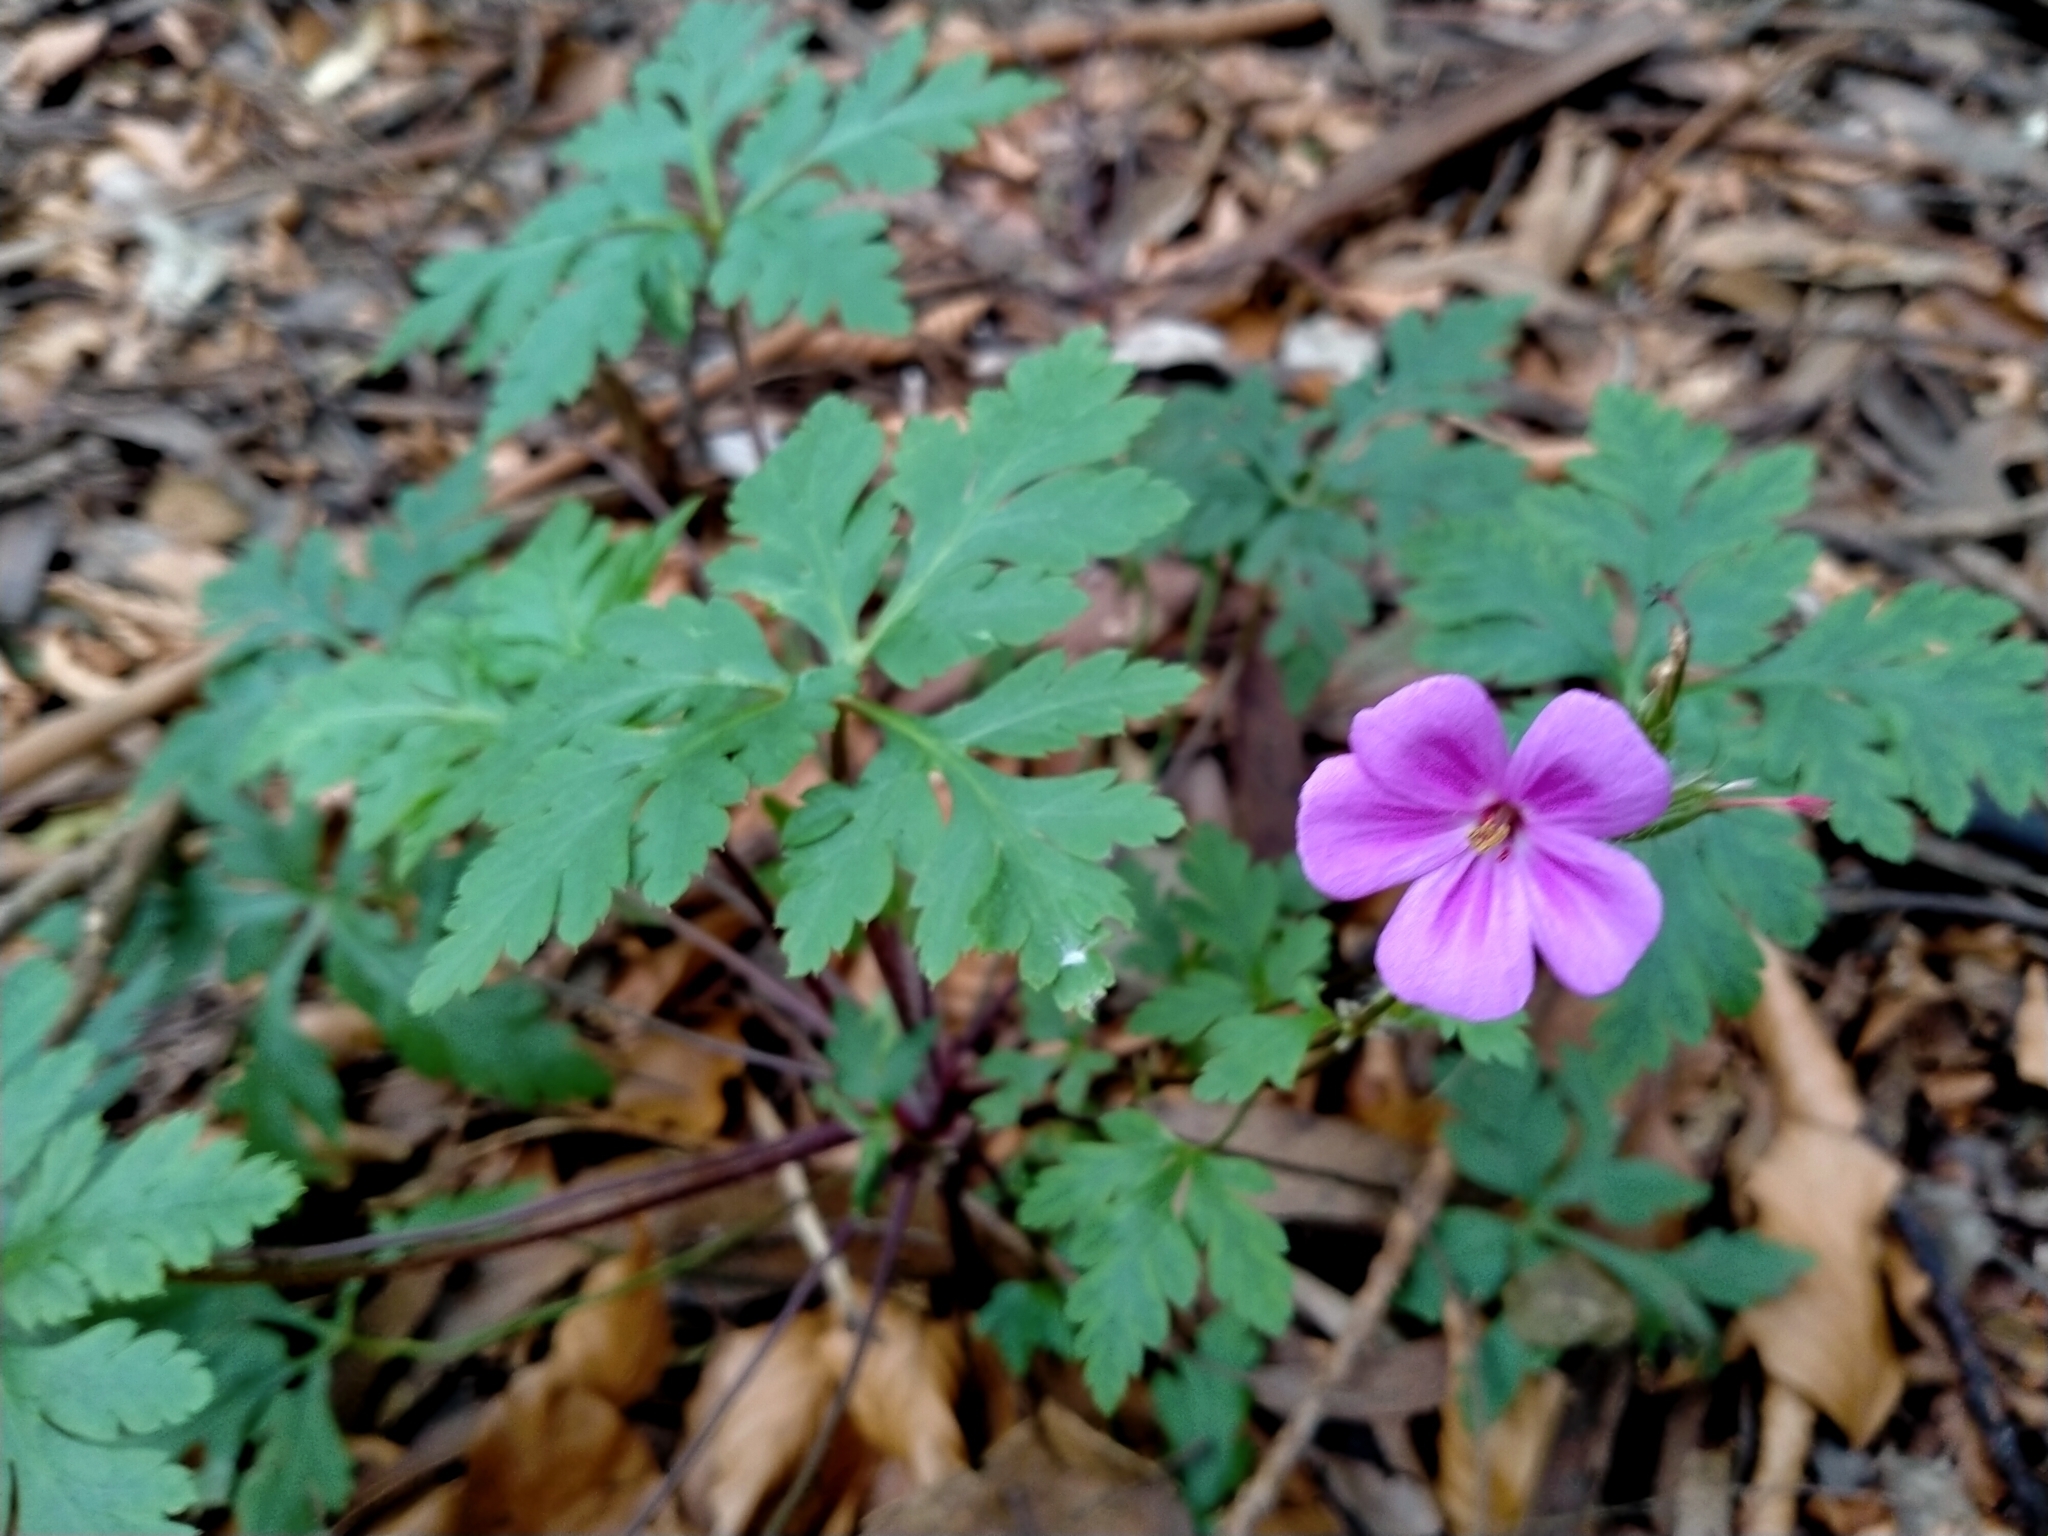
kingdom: Plantae
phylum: Tracheophyta
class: Magnoliopsida
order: Geraniales
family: Geraniaceae
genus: Geranium
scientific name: Geranium robertianum
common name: Herb-robert
